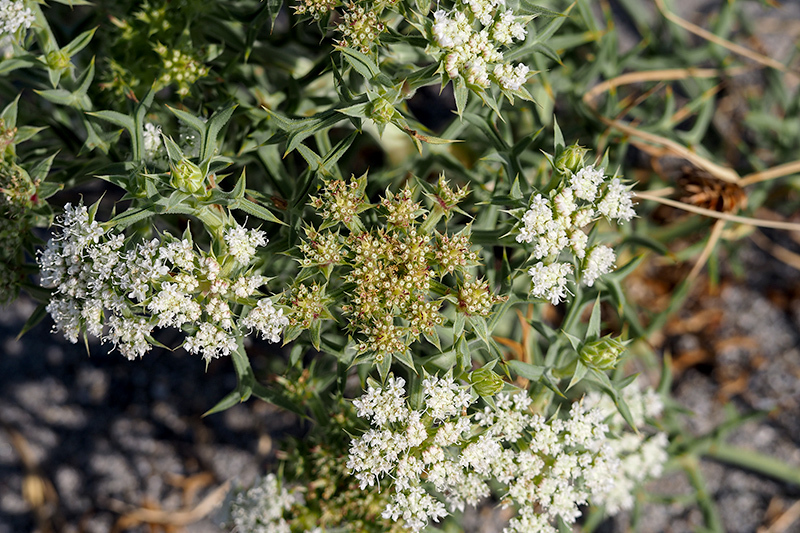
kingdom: Plantae
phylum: Tracheophyta
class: Magnoliopsida
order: Apiales
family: Apiaceae
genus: Echinophora
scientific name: Echinophora spinosa
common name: Prickly samphire
